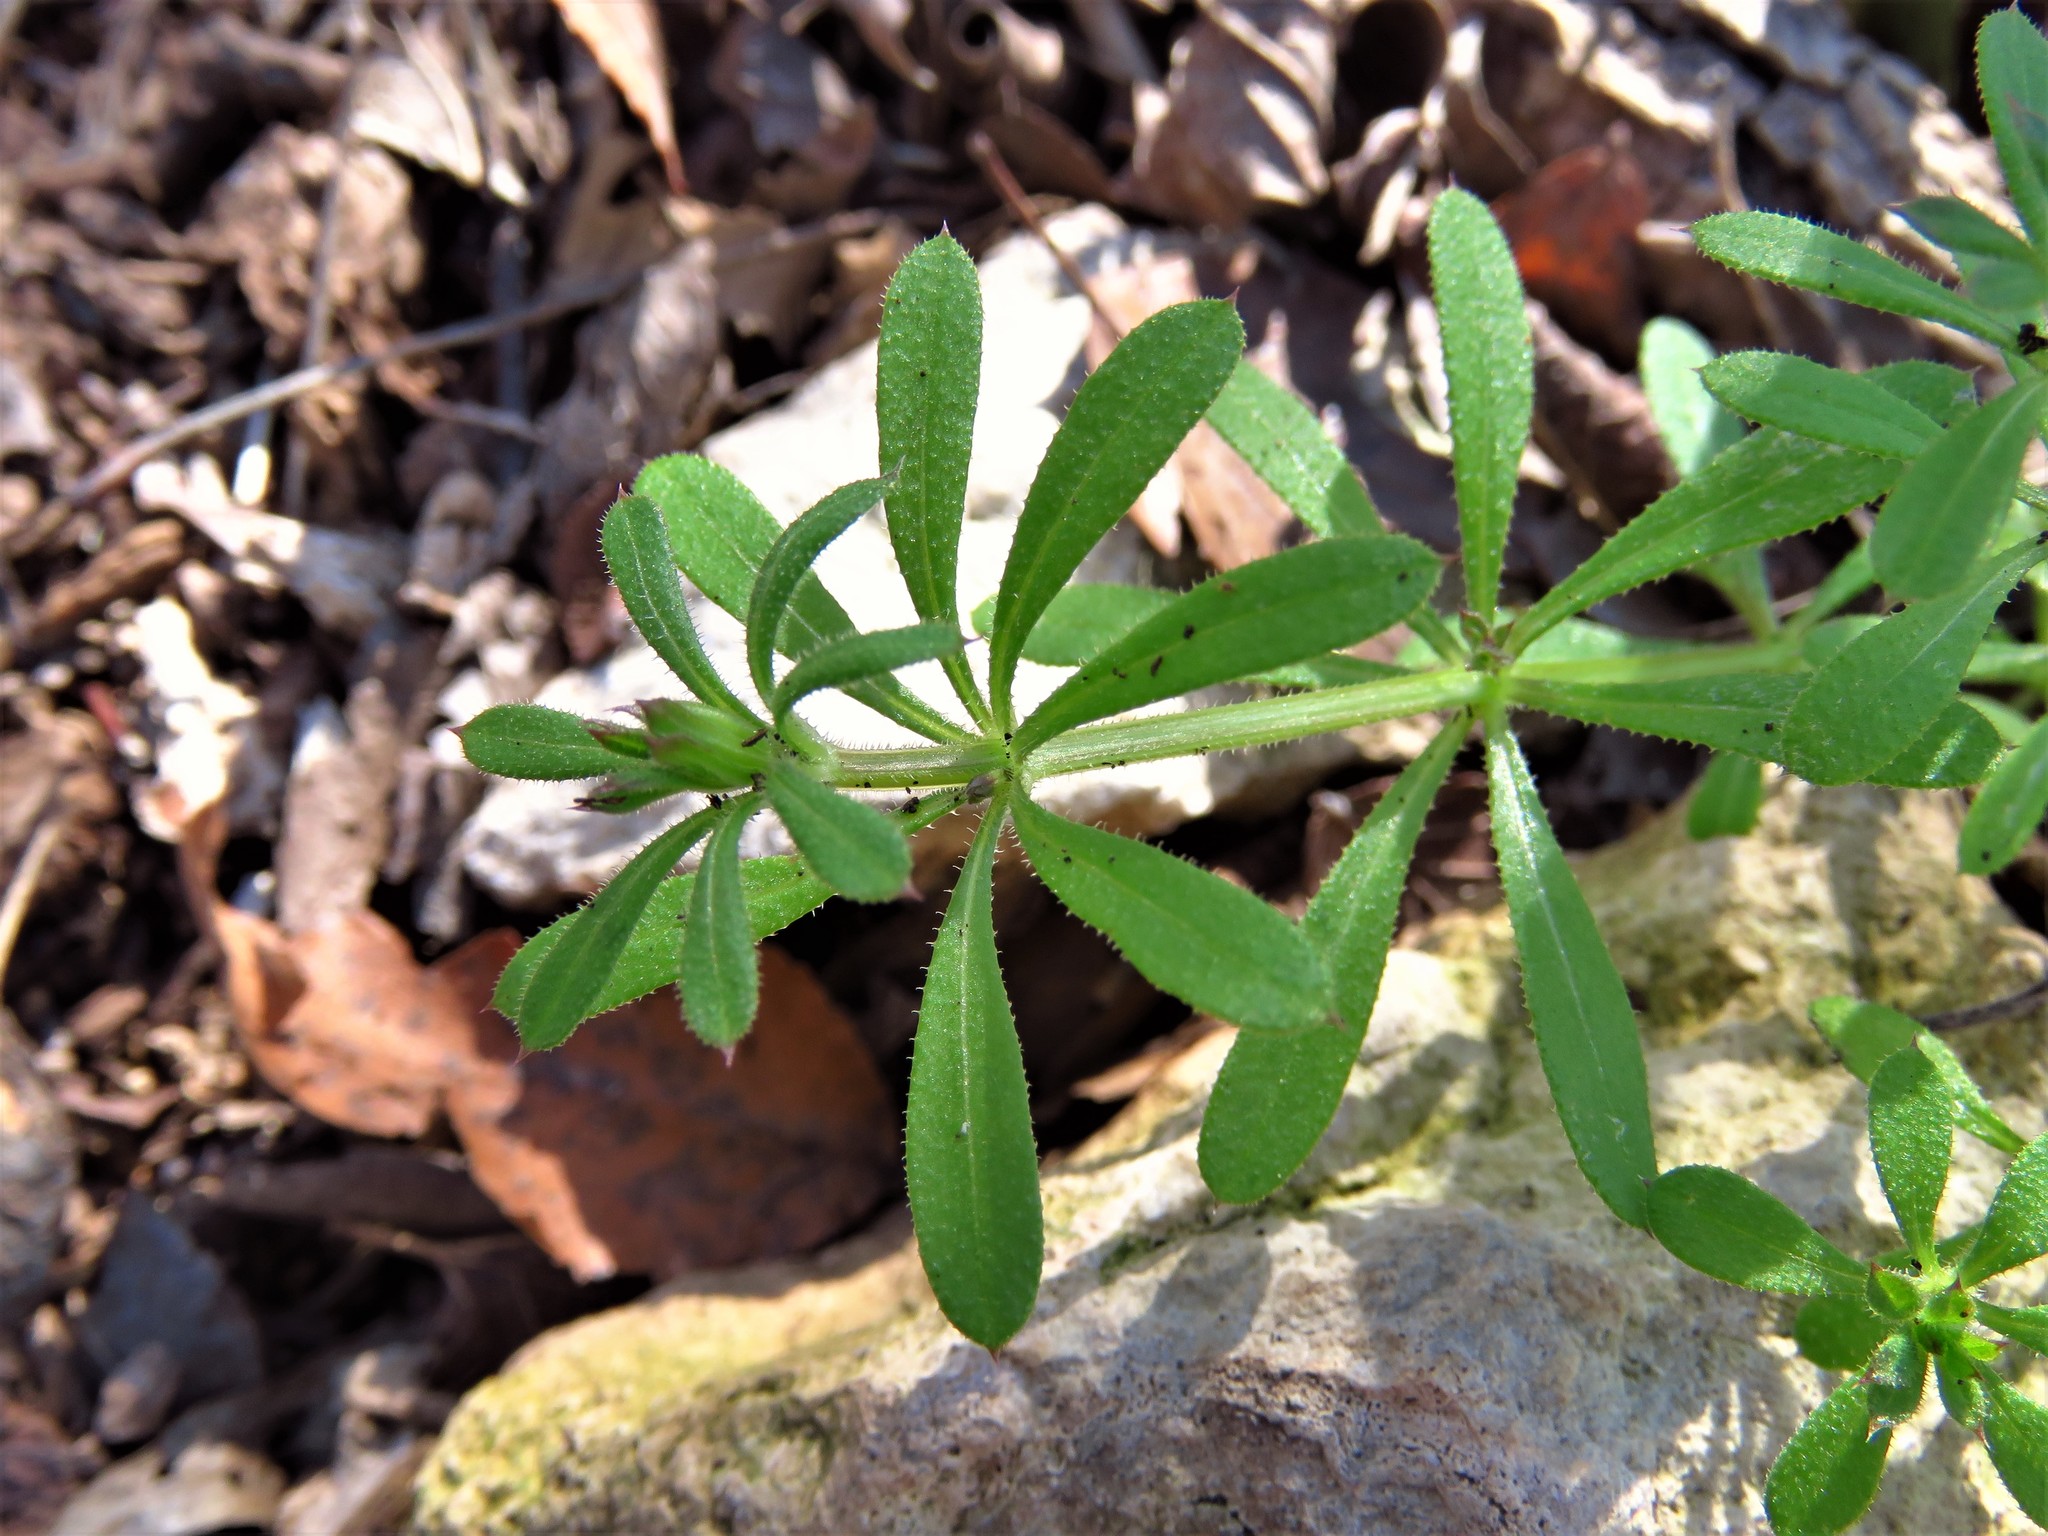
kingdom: Plantae
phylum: Tracheophyta
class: Magnoliopsida
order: Gentianales
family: Rubiaceae
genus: Galium
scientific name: Galium aparine
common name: Cleavers
